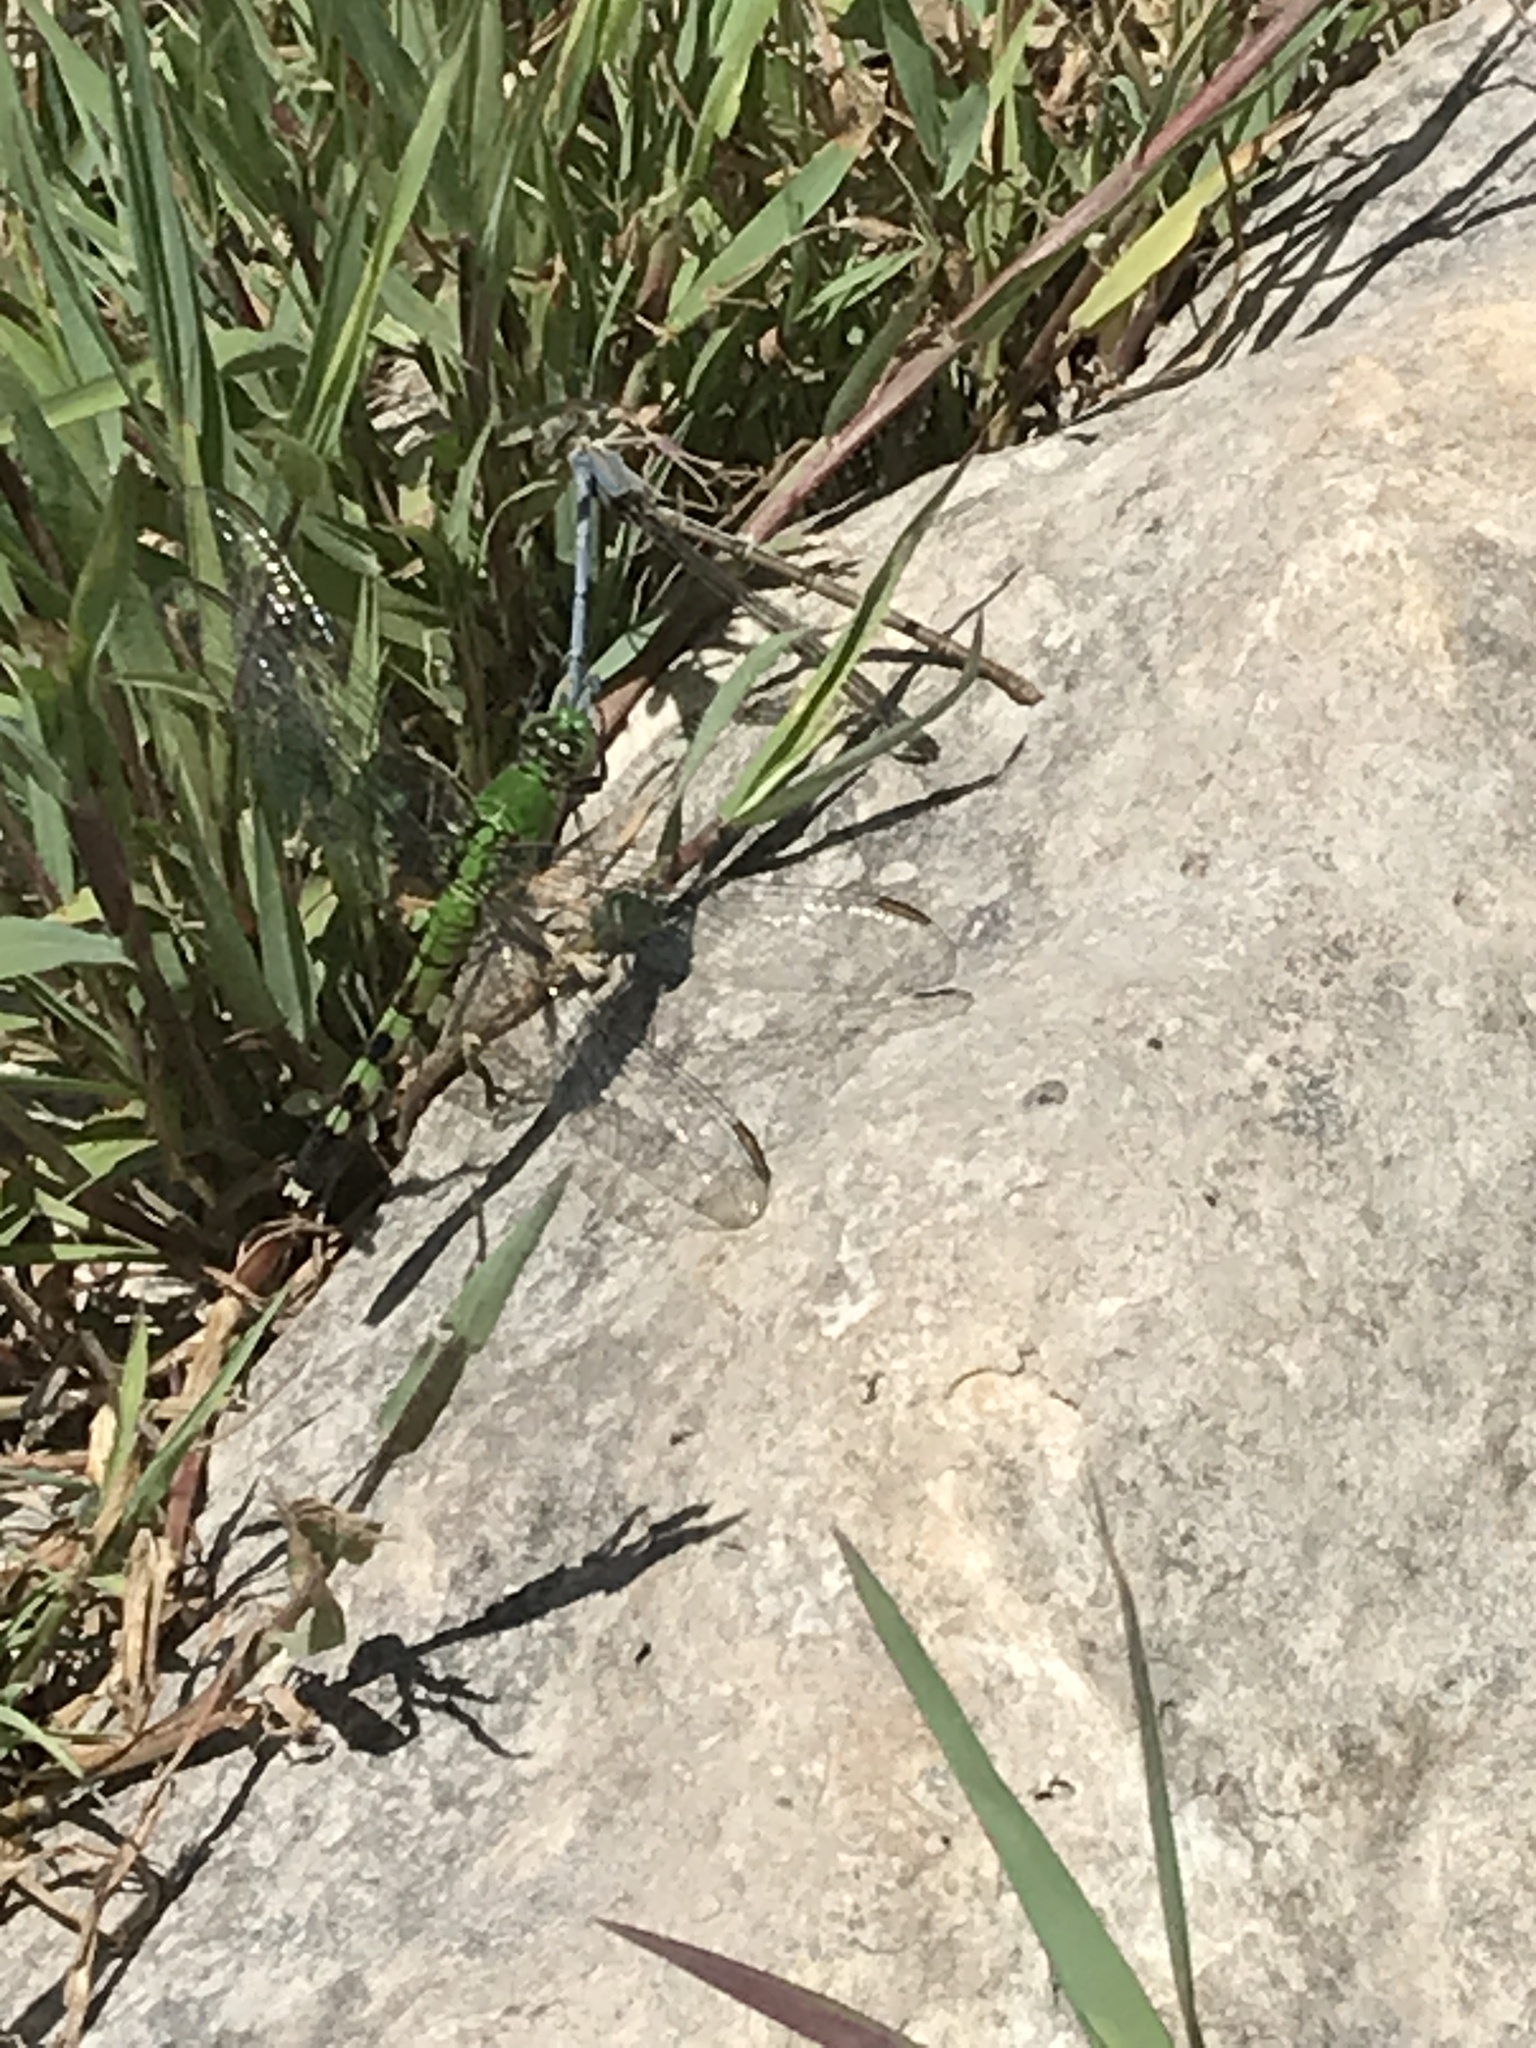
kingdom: Animalia
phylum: Arthropoda
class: Insecta
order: Odonata
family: Libellulidae
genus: Erythemis
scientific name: Erythemis simplicicollis
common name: Eastern pondhawk
